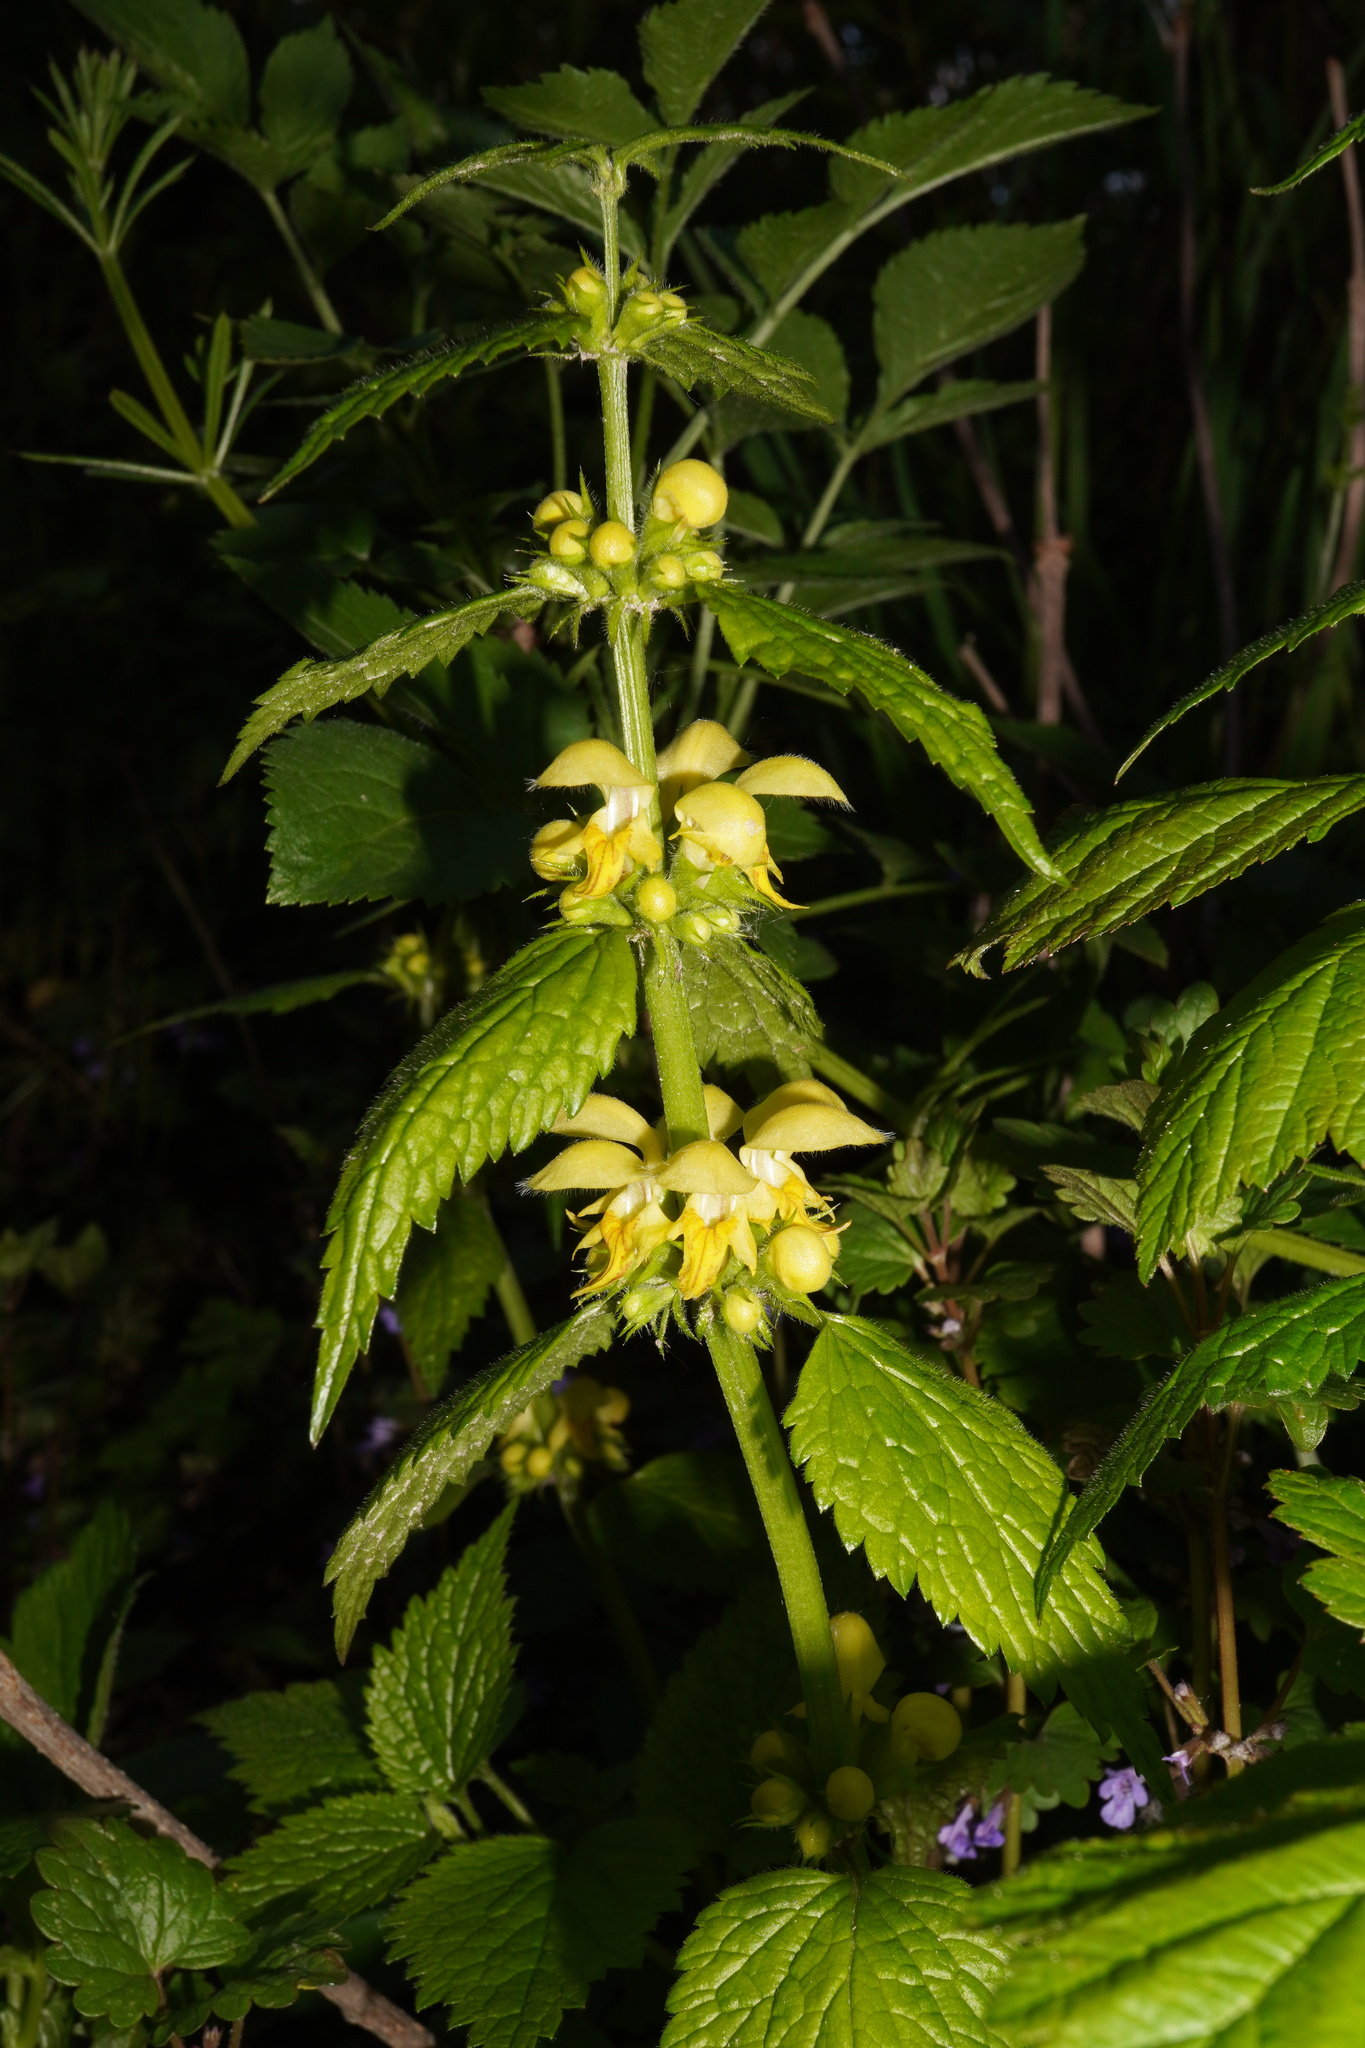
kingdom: Plantae
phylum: Tracheophyta
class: Magnoliopsida
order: Lamiales
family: Lamiaceae
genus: Lamium
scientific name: Lamium galeobdolon
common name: Yellow archangel
